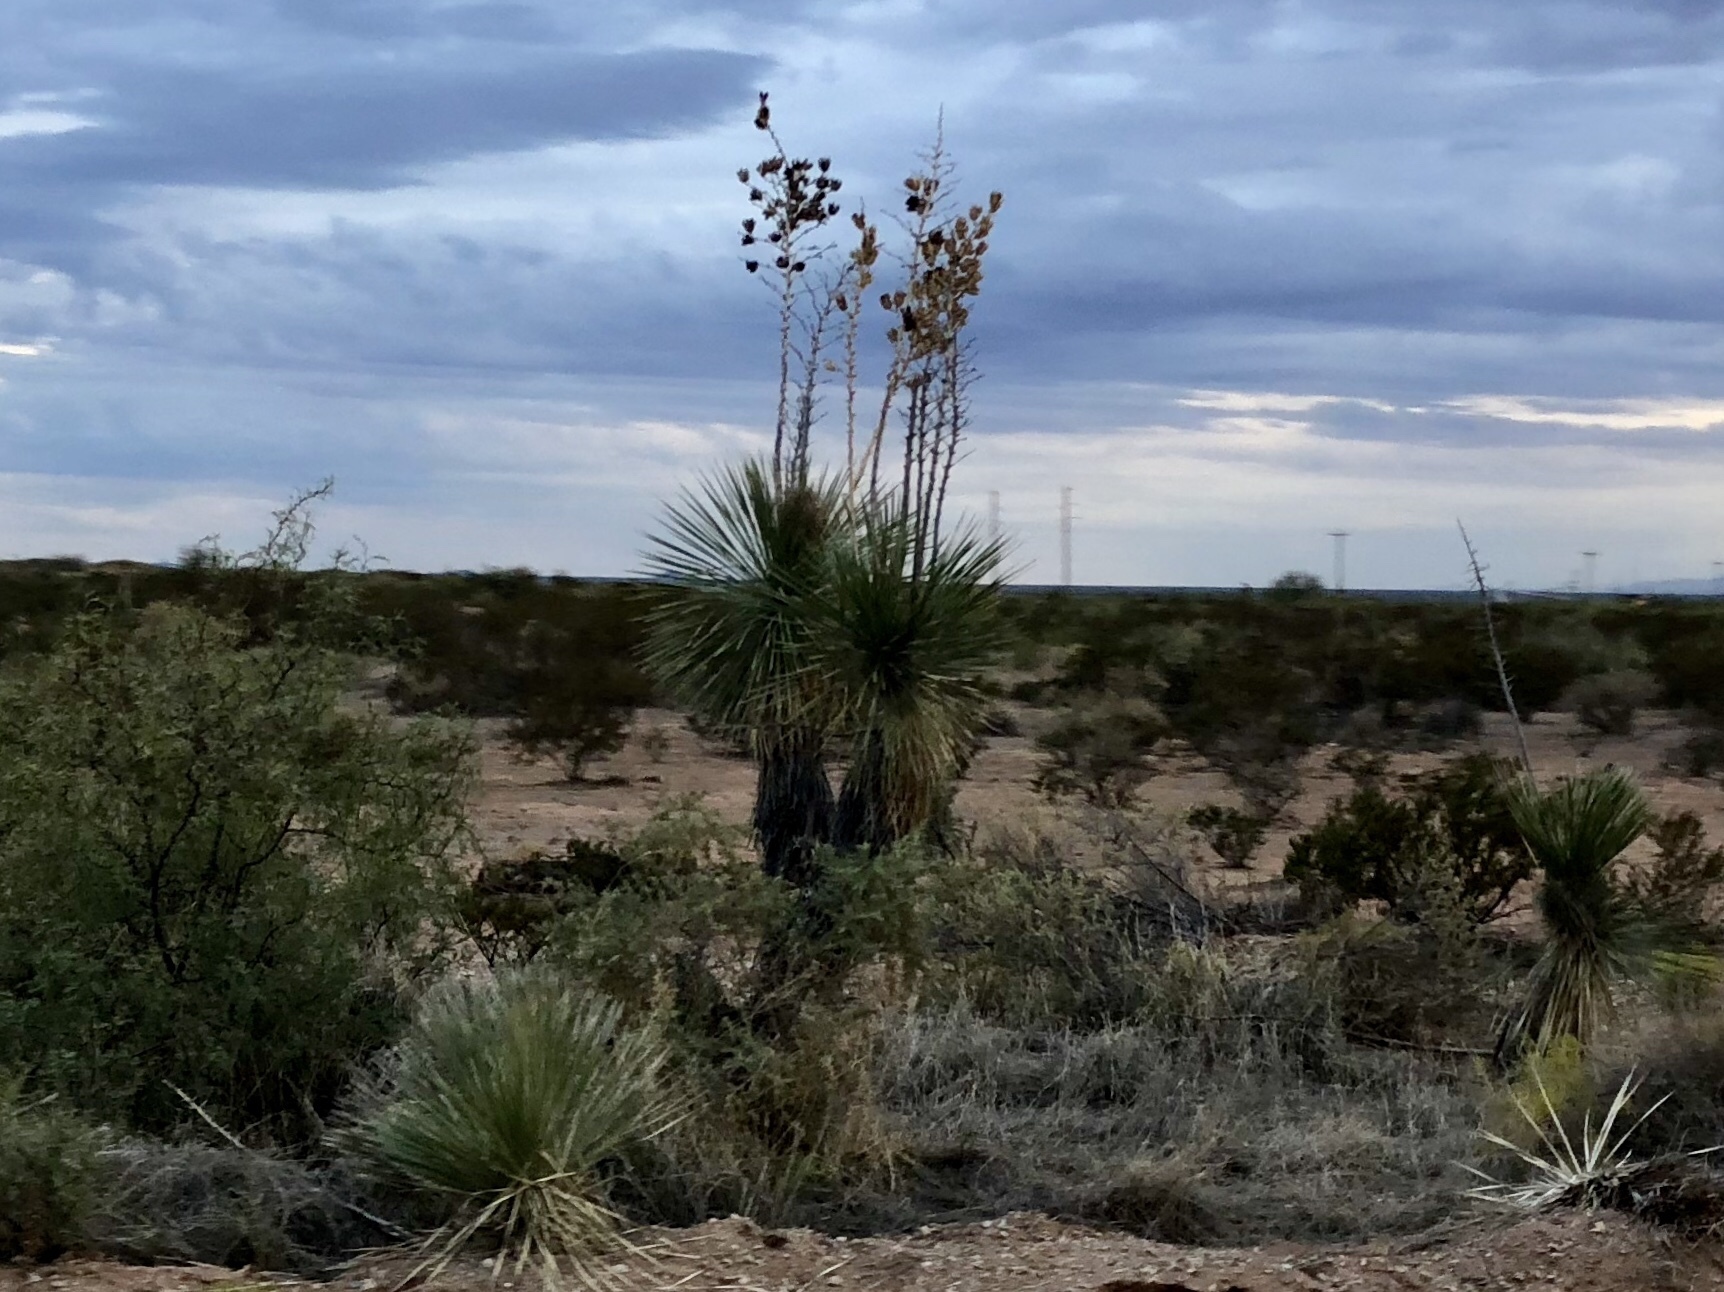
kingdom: Plantae
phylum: Tracheophyta
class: Liliopsida
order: Asparagales
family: Asparagaceae
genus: Yucca
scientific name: Yucca elata
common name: Palmella
